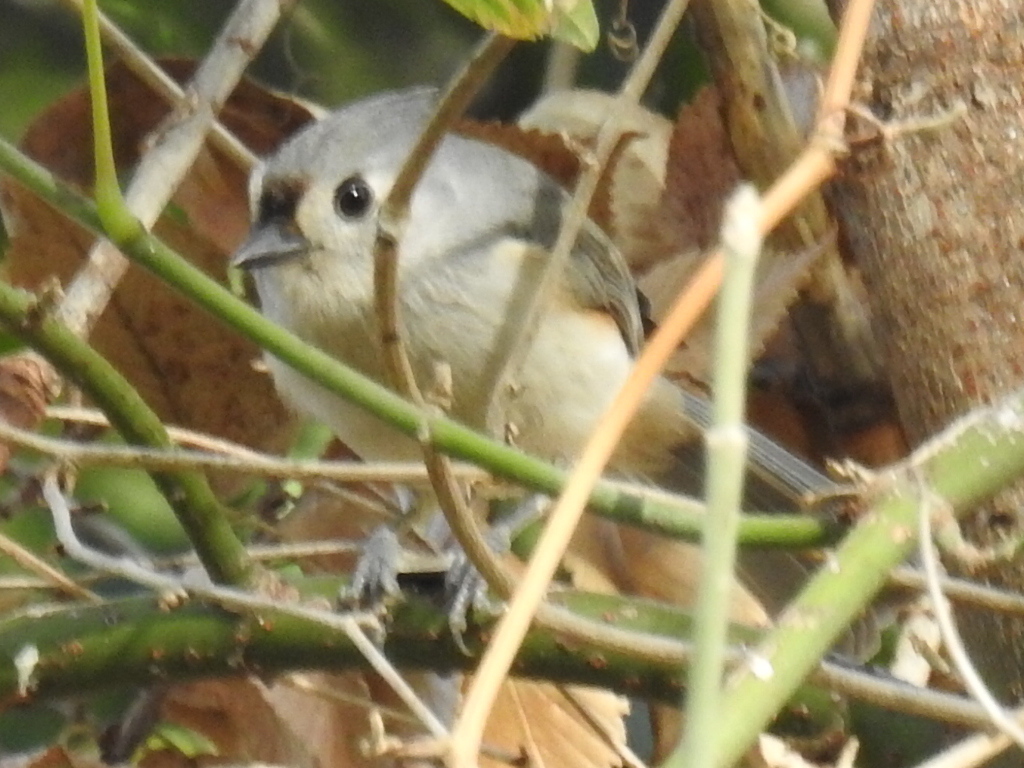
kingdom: Animalia
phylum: Chordata
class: Aves
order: Passeriformes
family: Paridae
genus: Baeolophus
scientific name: Baeolophus bicolor
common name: Tufted titmouse
